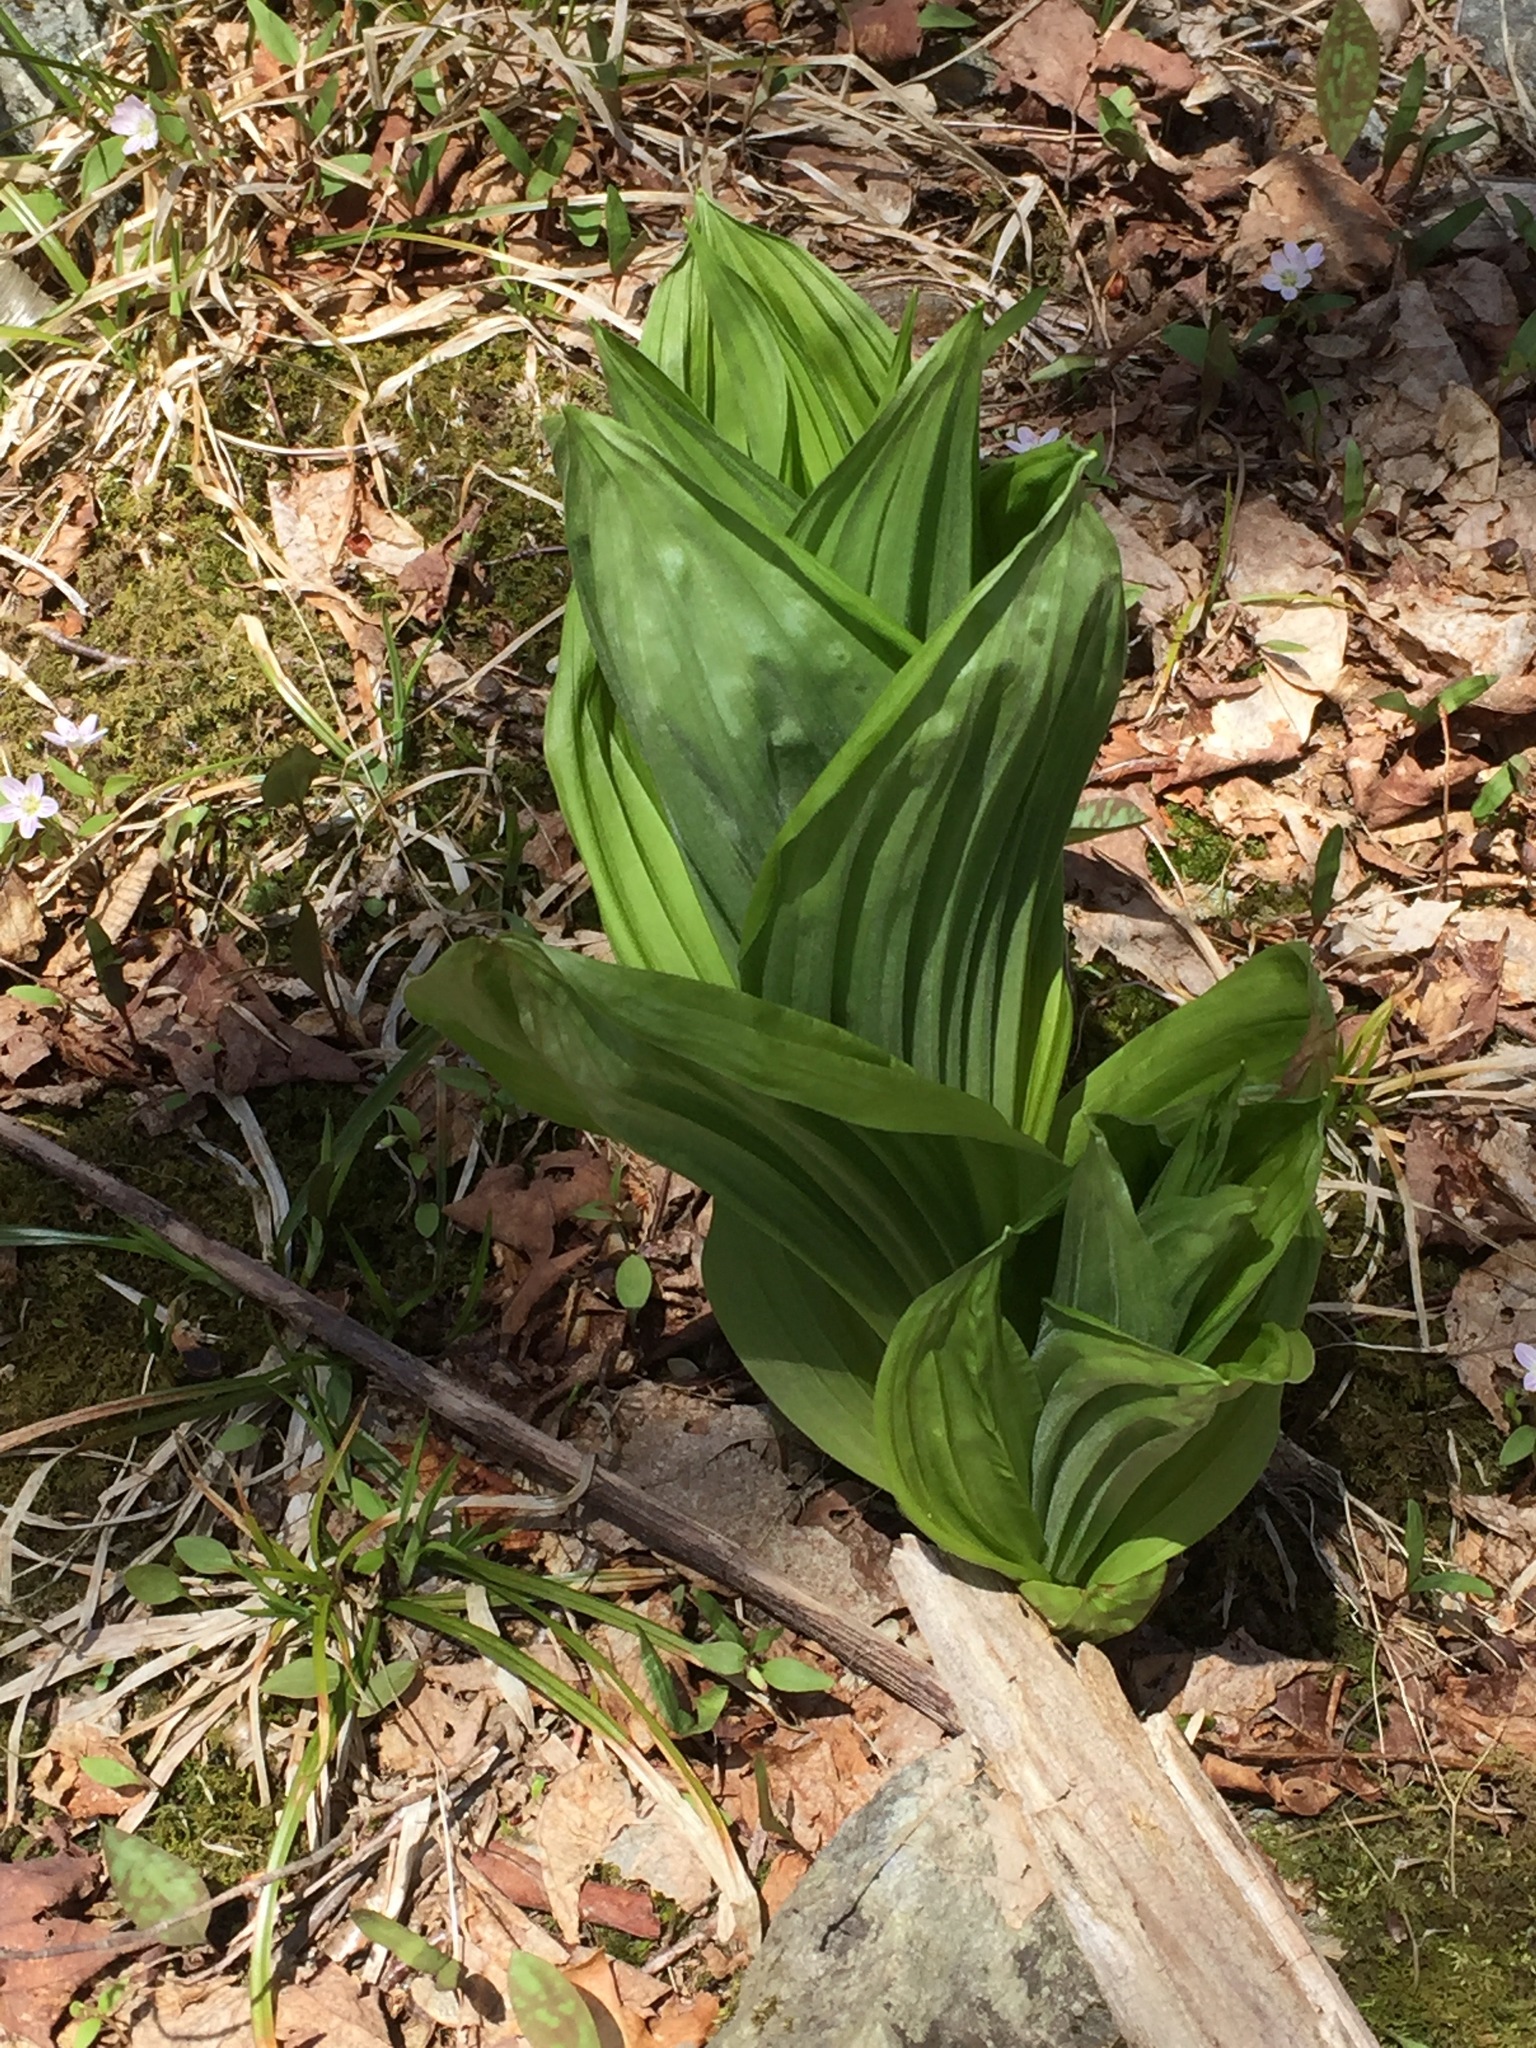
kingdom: Plantae
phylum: Tracheophyta
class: Liliopsida
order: Liliales
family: Melanthiaceae
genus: Veratrum
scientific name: Veratrum viride
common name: American false hellebore
